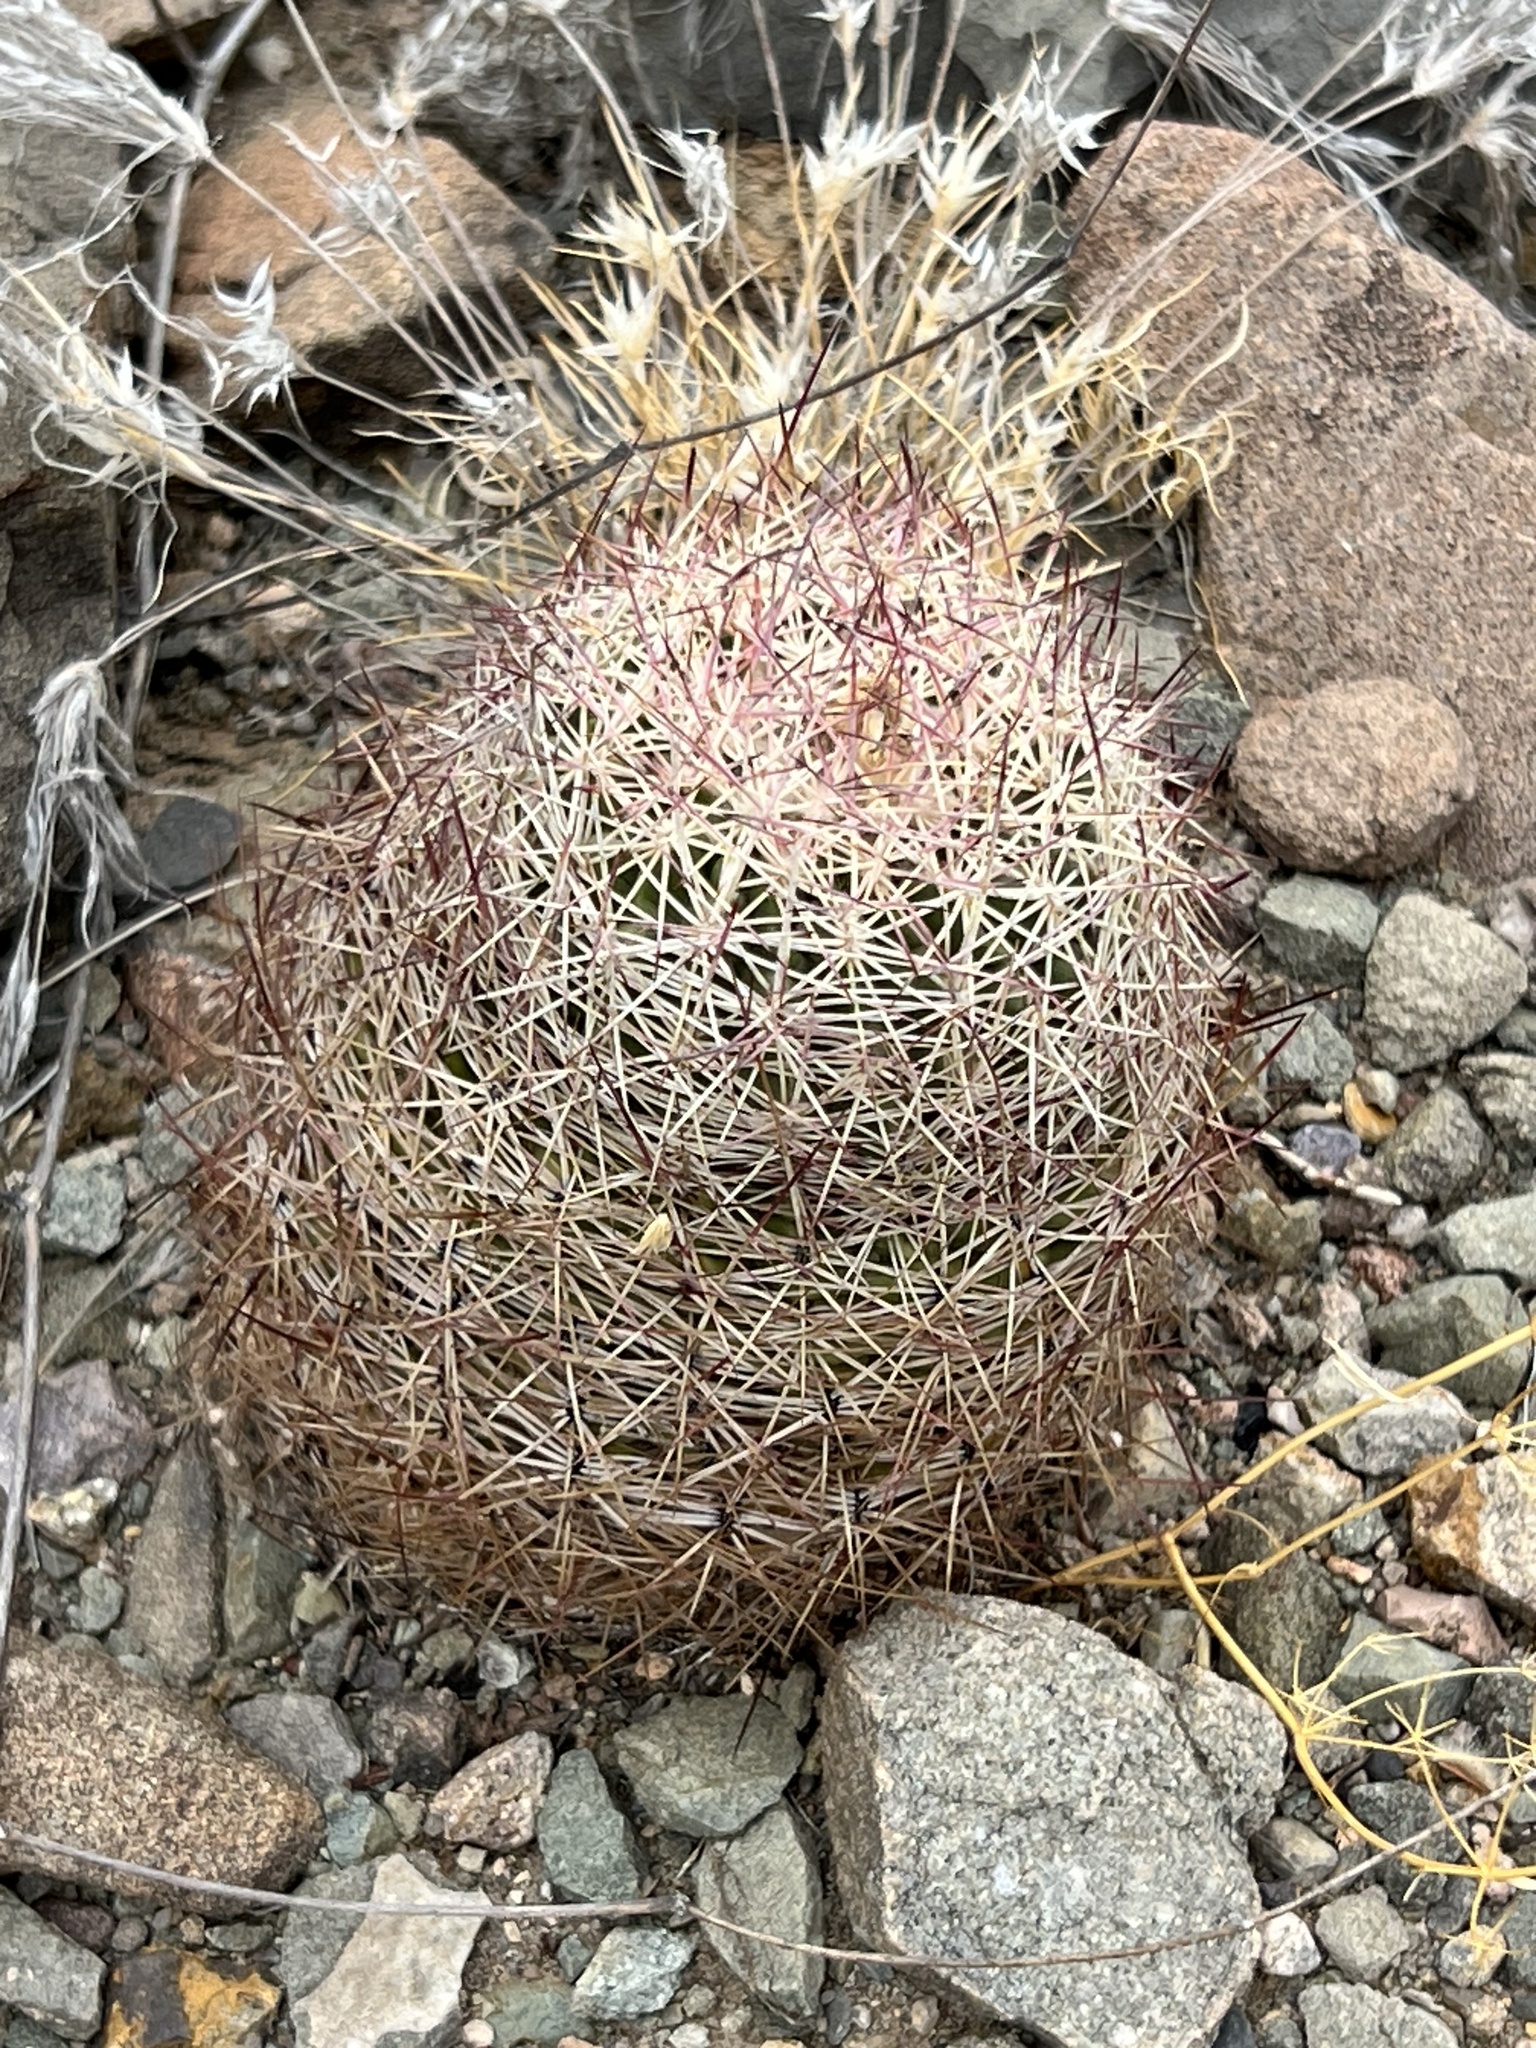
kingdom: Plantae
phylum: Tracheophyta
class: Magnoliopsida
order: Caryophyllales
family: Cactaceae
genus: Sclerocactus
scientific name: Sclerocactus johnsonii
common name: Eight-spine fishhook cactus
